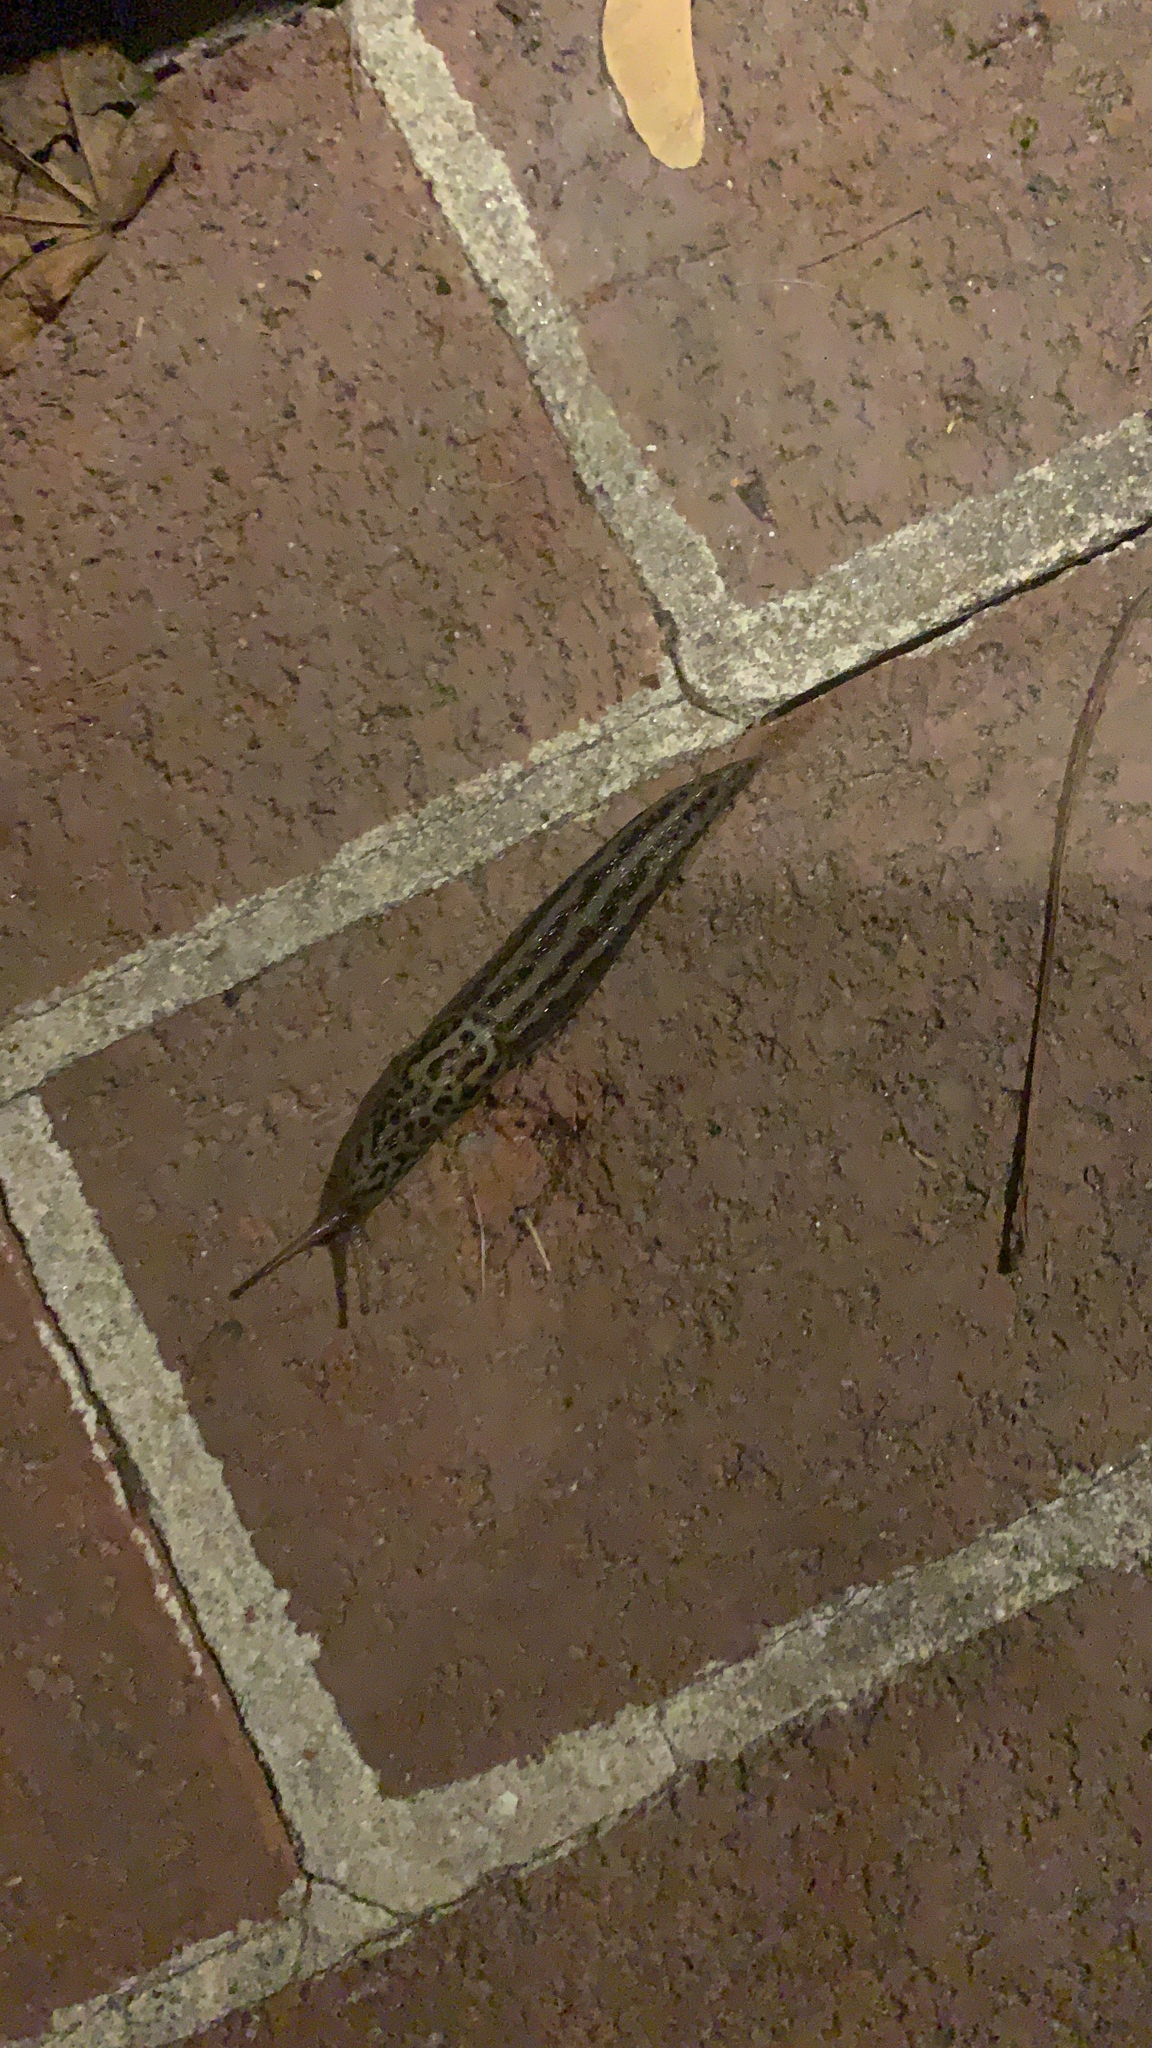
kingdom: Animalia
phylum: Mollusca
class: Gastropoda
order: Stylommatophora
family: Limacidae
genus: Limax
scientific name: Limax maximus
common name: Great grey slug
